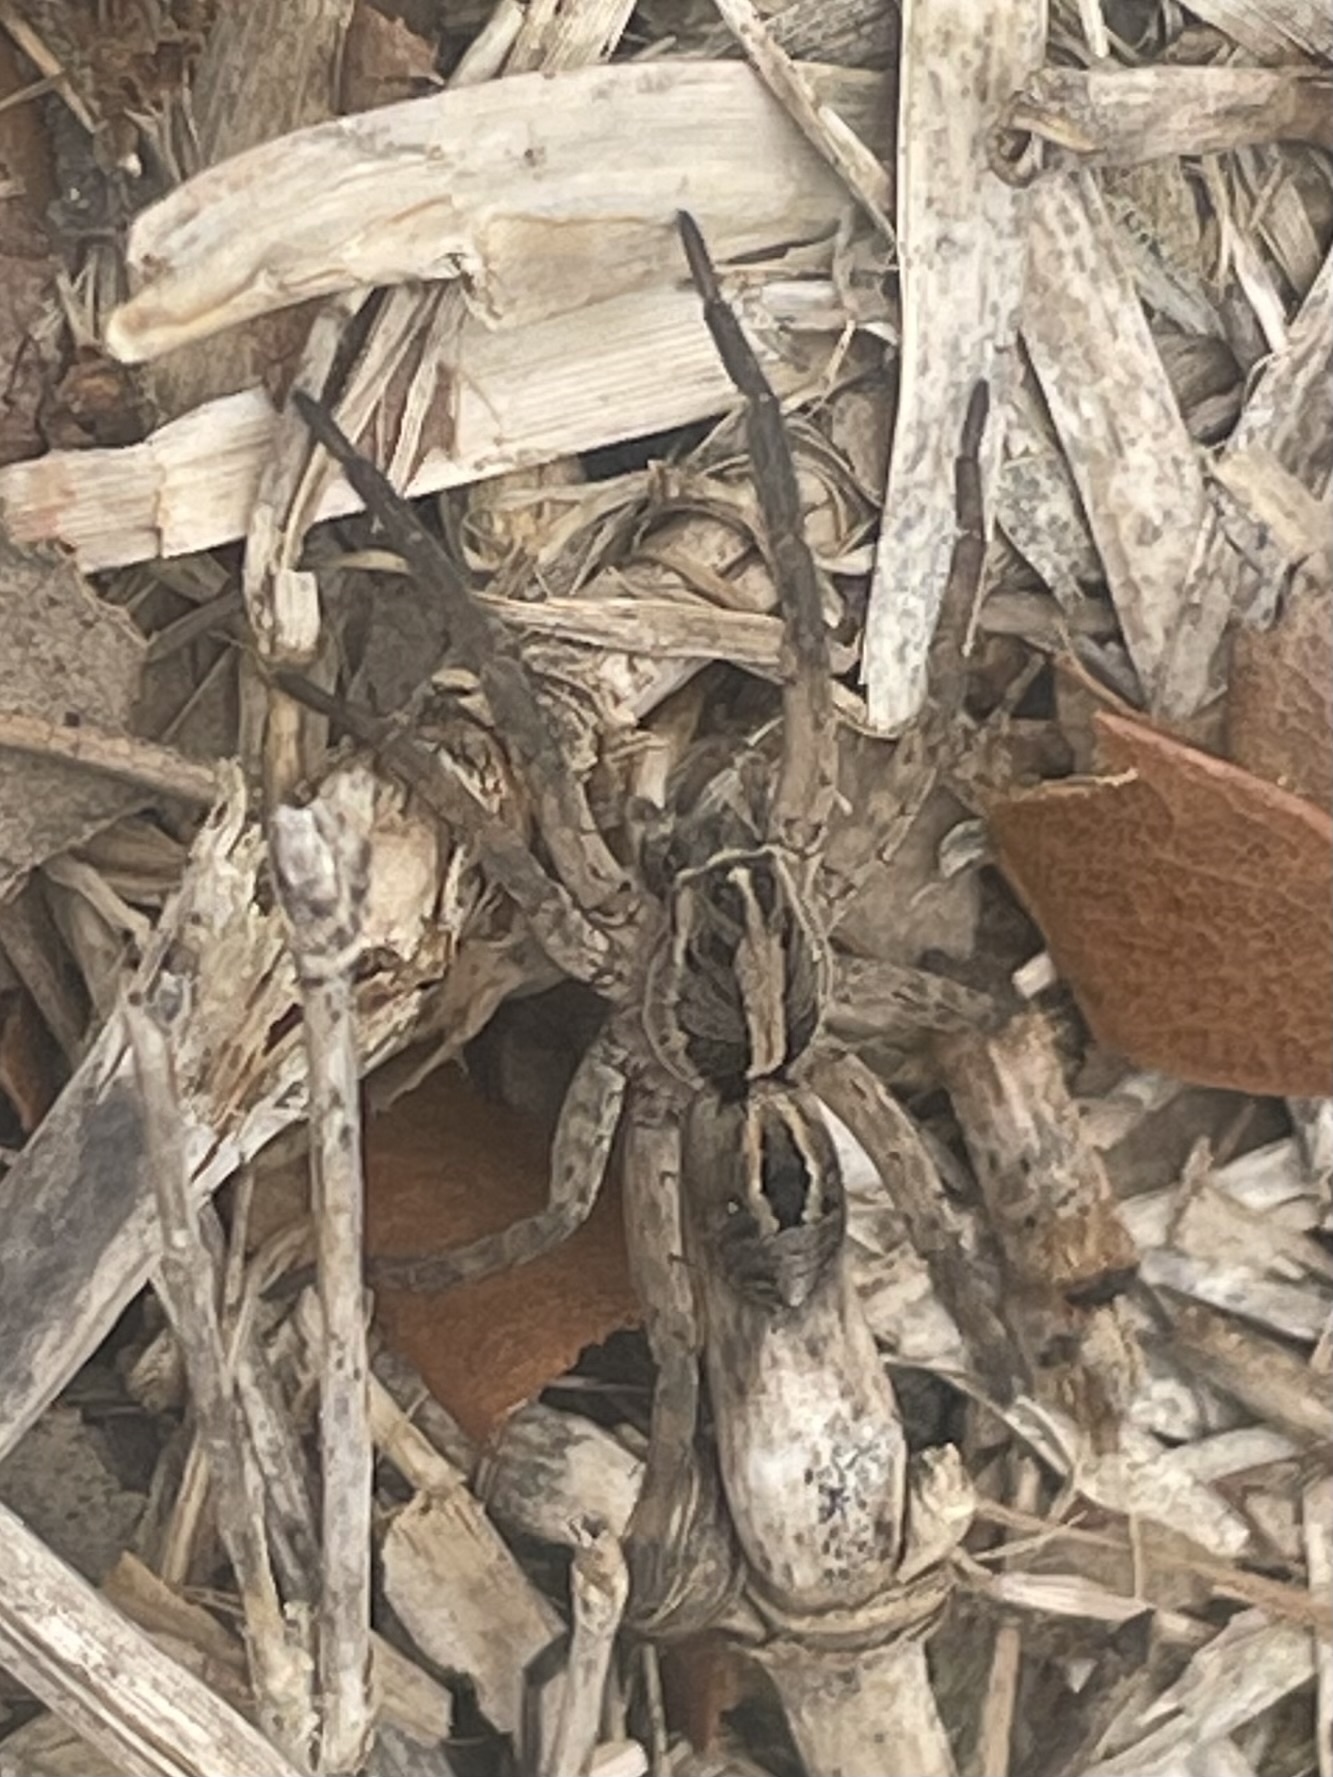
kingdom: Animalia
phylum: Arthropoda
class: Arachnida
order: Araneae
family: Lycosidae
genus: Schizocosa
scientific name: Schizocosa avida
